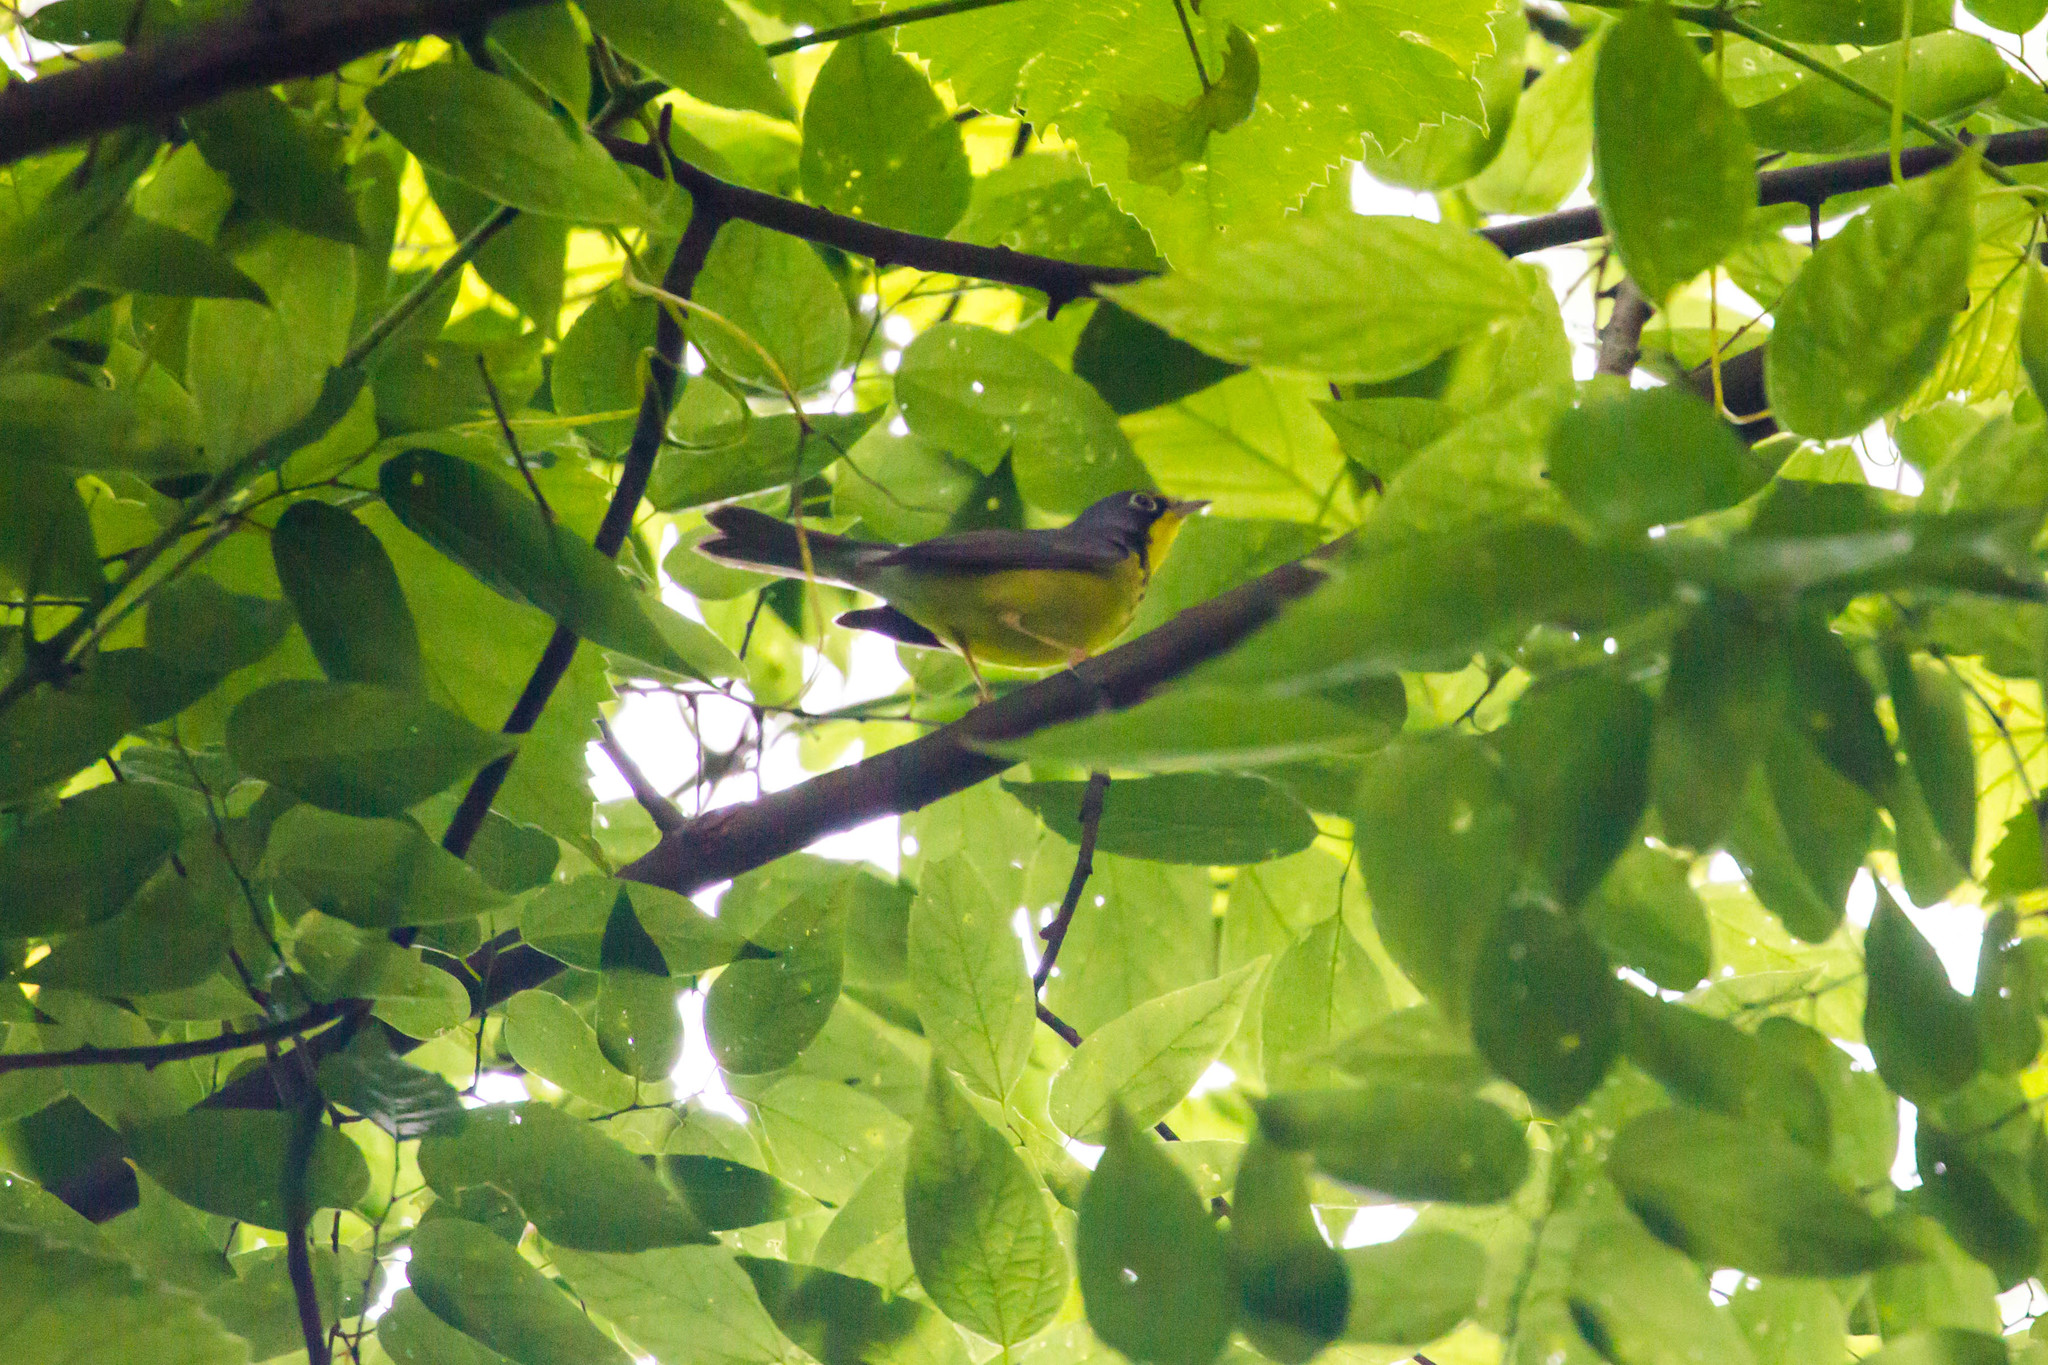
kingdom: Animalia
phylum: Chordata
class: Aves
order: Passeriformes
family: Parulidae
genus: Cardellina
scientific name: Cardellina canadensis
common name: Canada warbler
